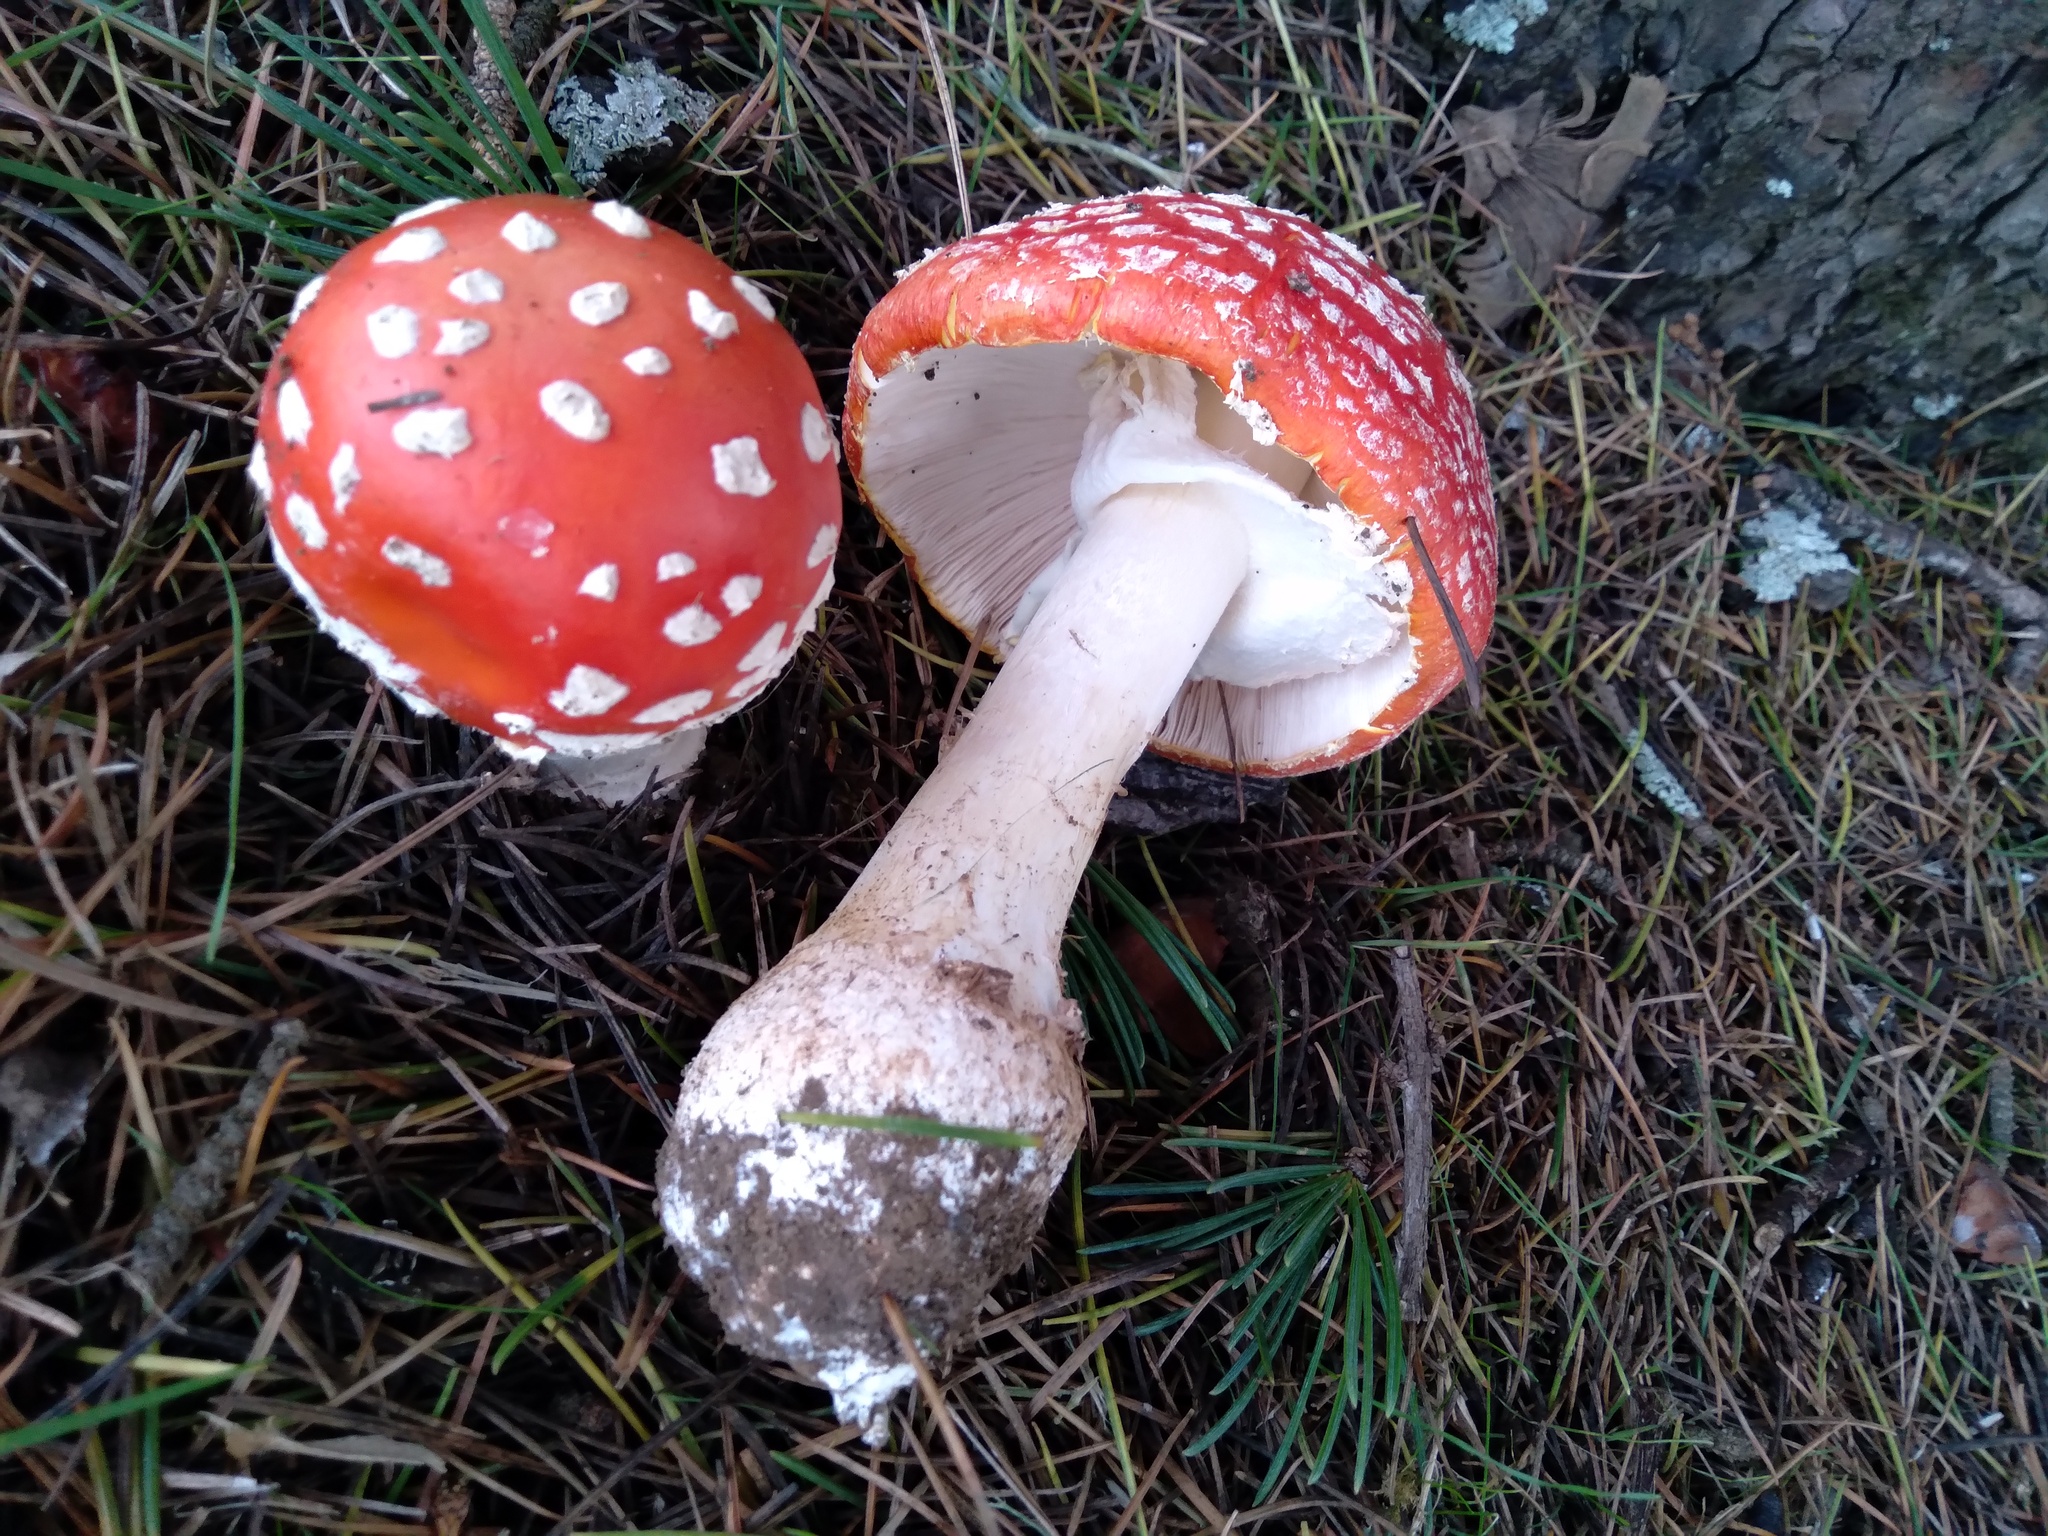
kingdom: Fungi
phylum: Basidiomycota
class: Agaricomycetes
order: Agaricales
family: Amanitaceae
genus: Amanita
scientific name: Amanita muscaria
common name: Fly agaric
